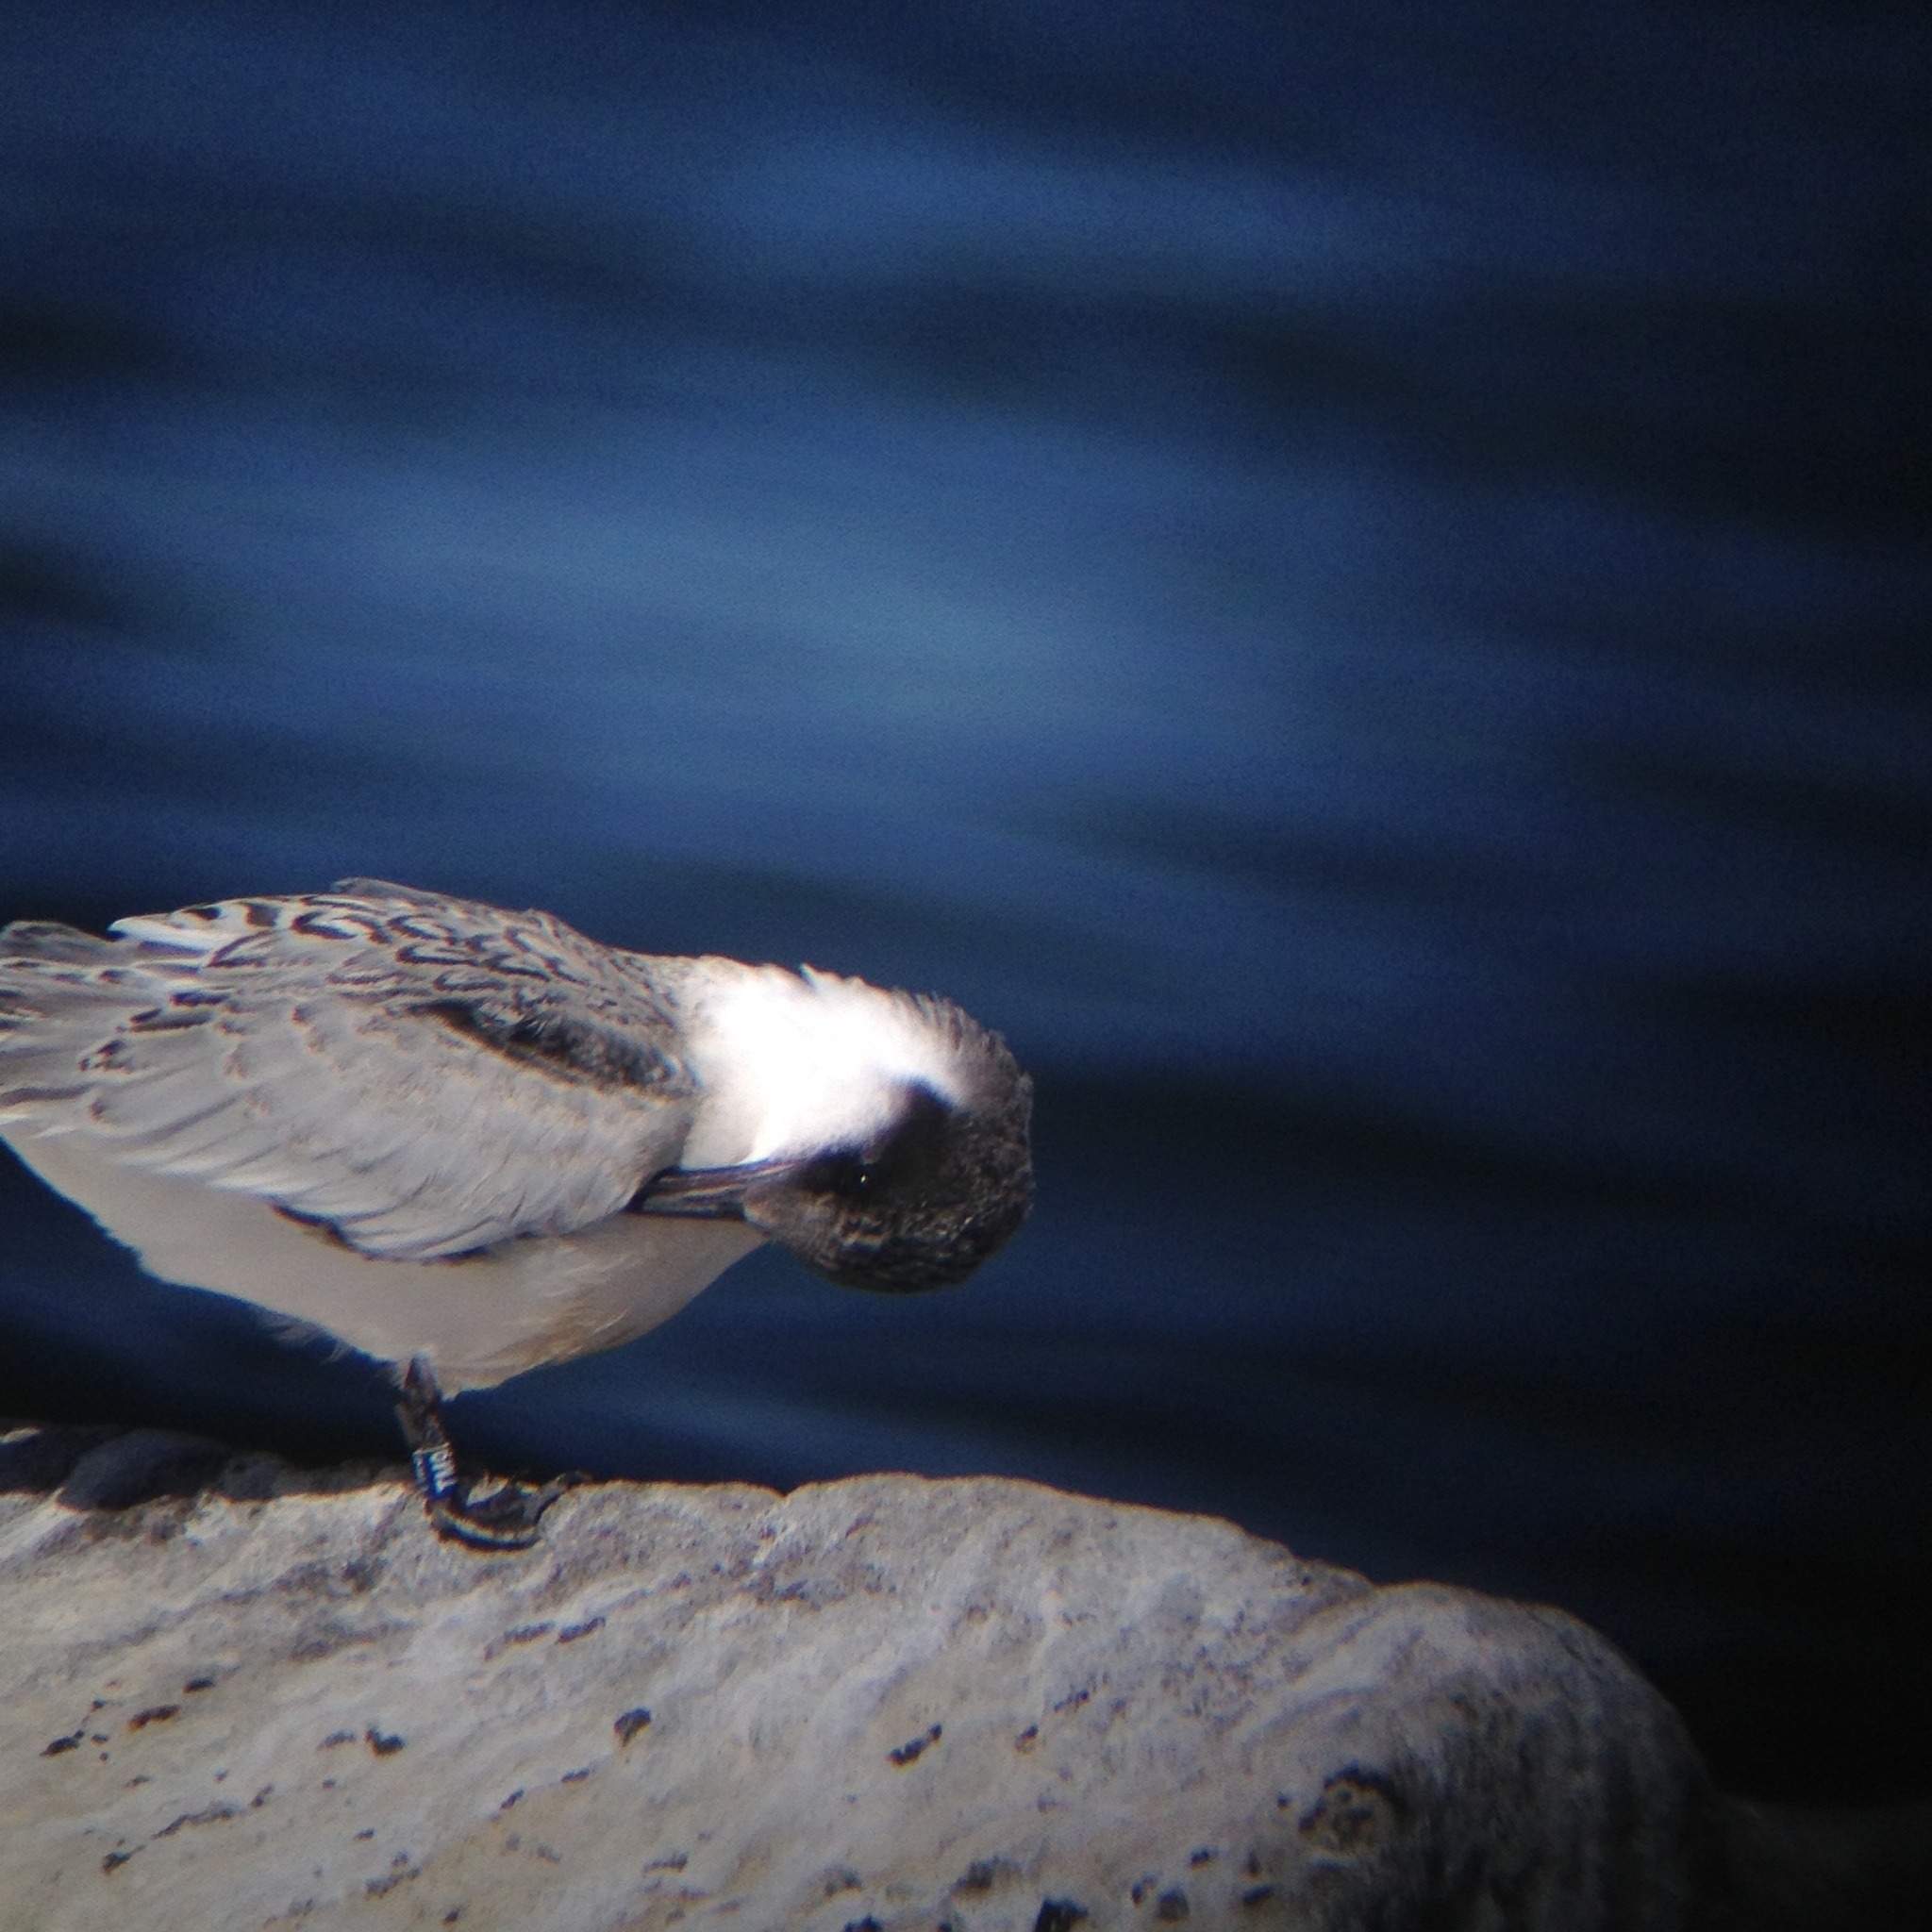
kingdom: Animalia
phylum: Chordata
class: Aves
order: Charadriiformes
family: Laridae
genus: Sterna
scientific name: Sterna dougallii
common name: Roseate tern
